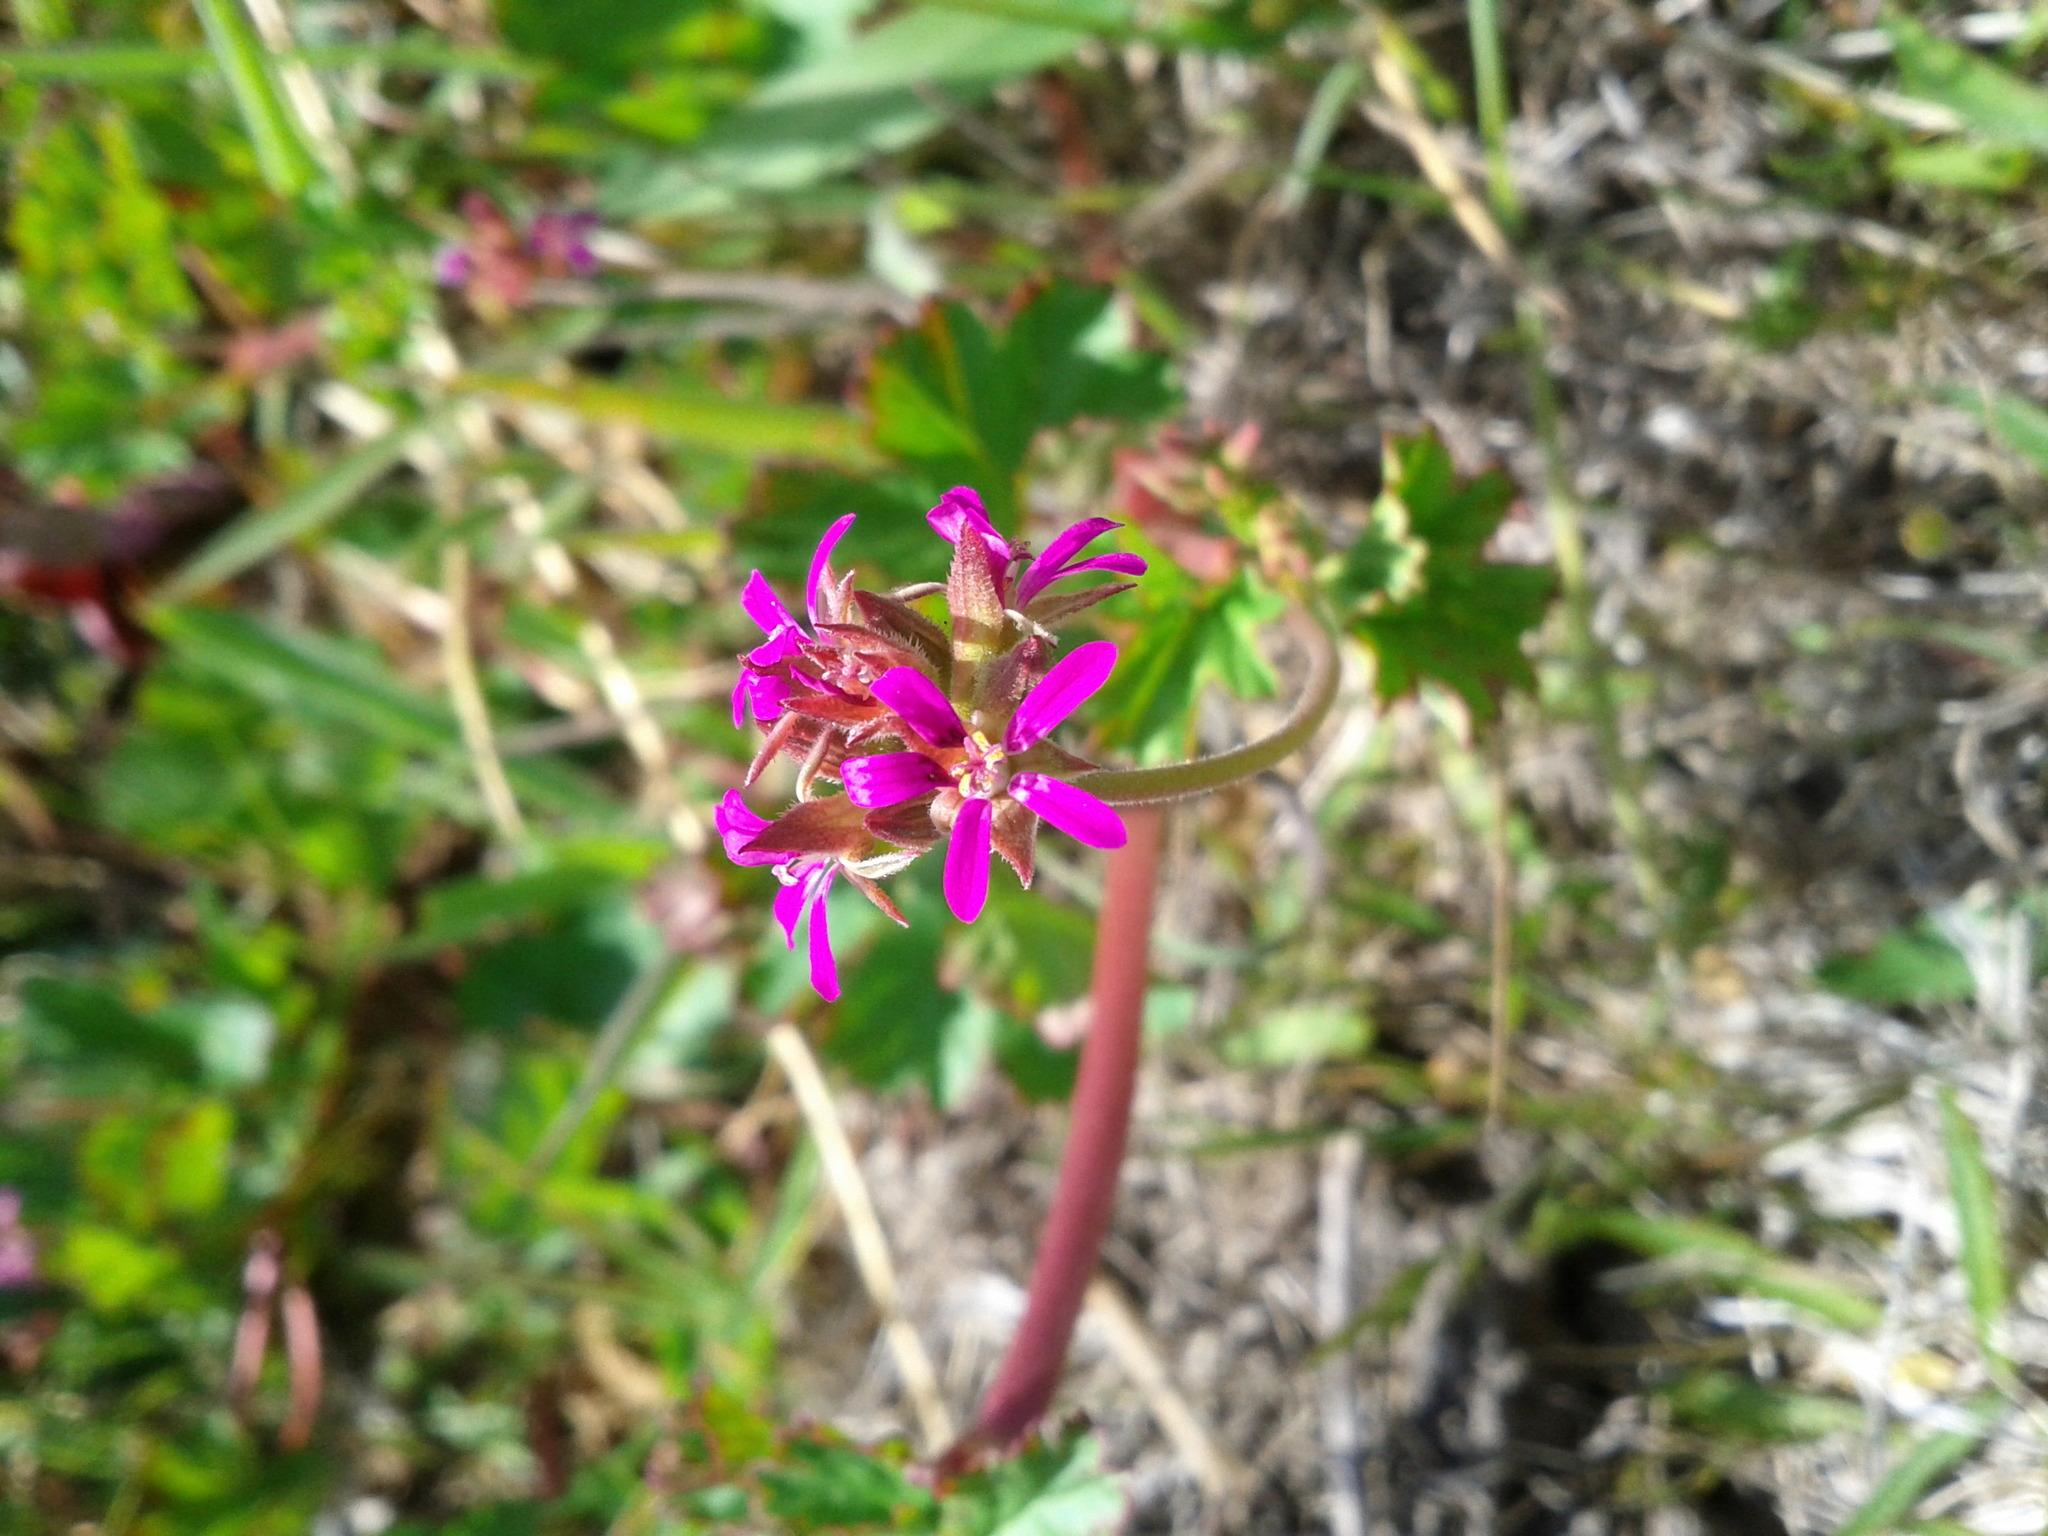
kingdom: Plantae
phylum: Tracheophyta
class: Magnoliopsida
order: Geraniales
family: Geraniaceae
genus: Pelargonium
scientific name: Pelargonium grossularioides
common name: Gooseberry geranium
